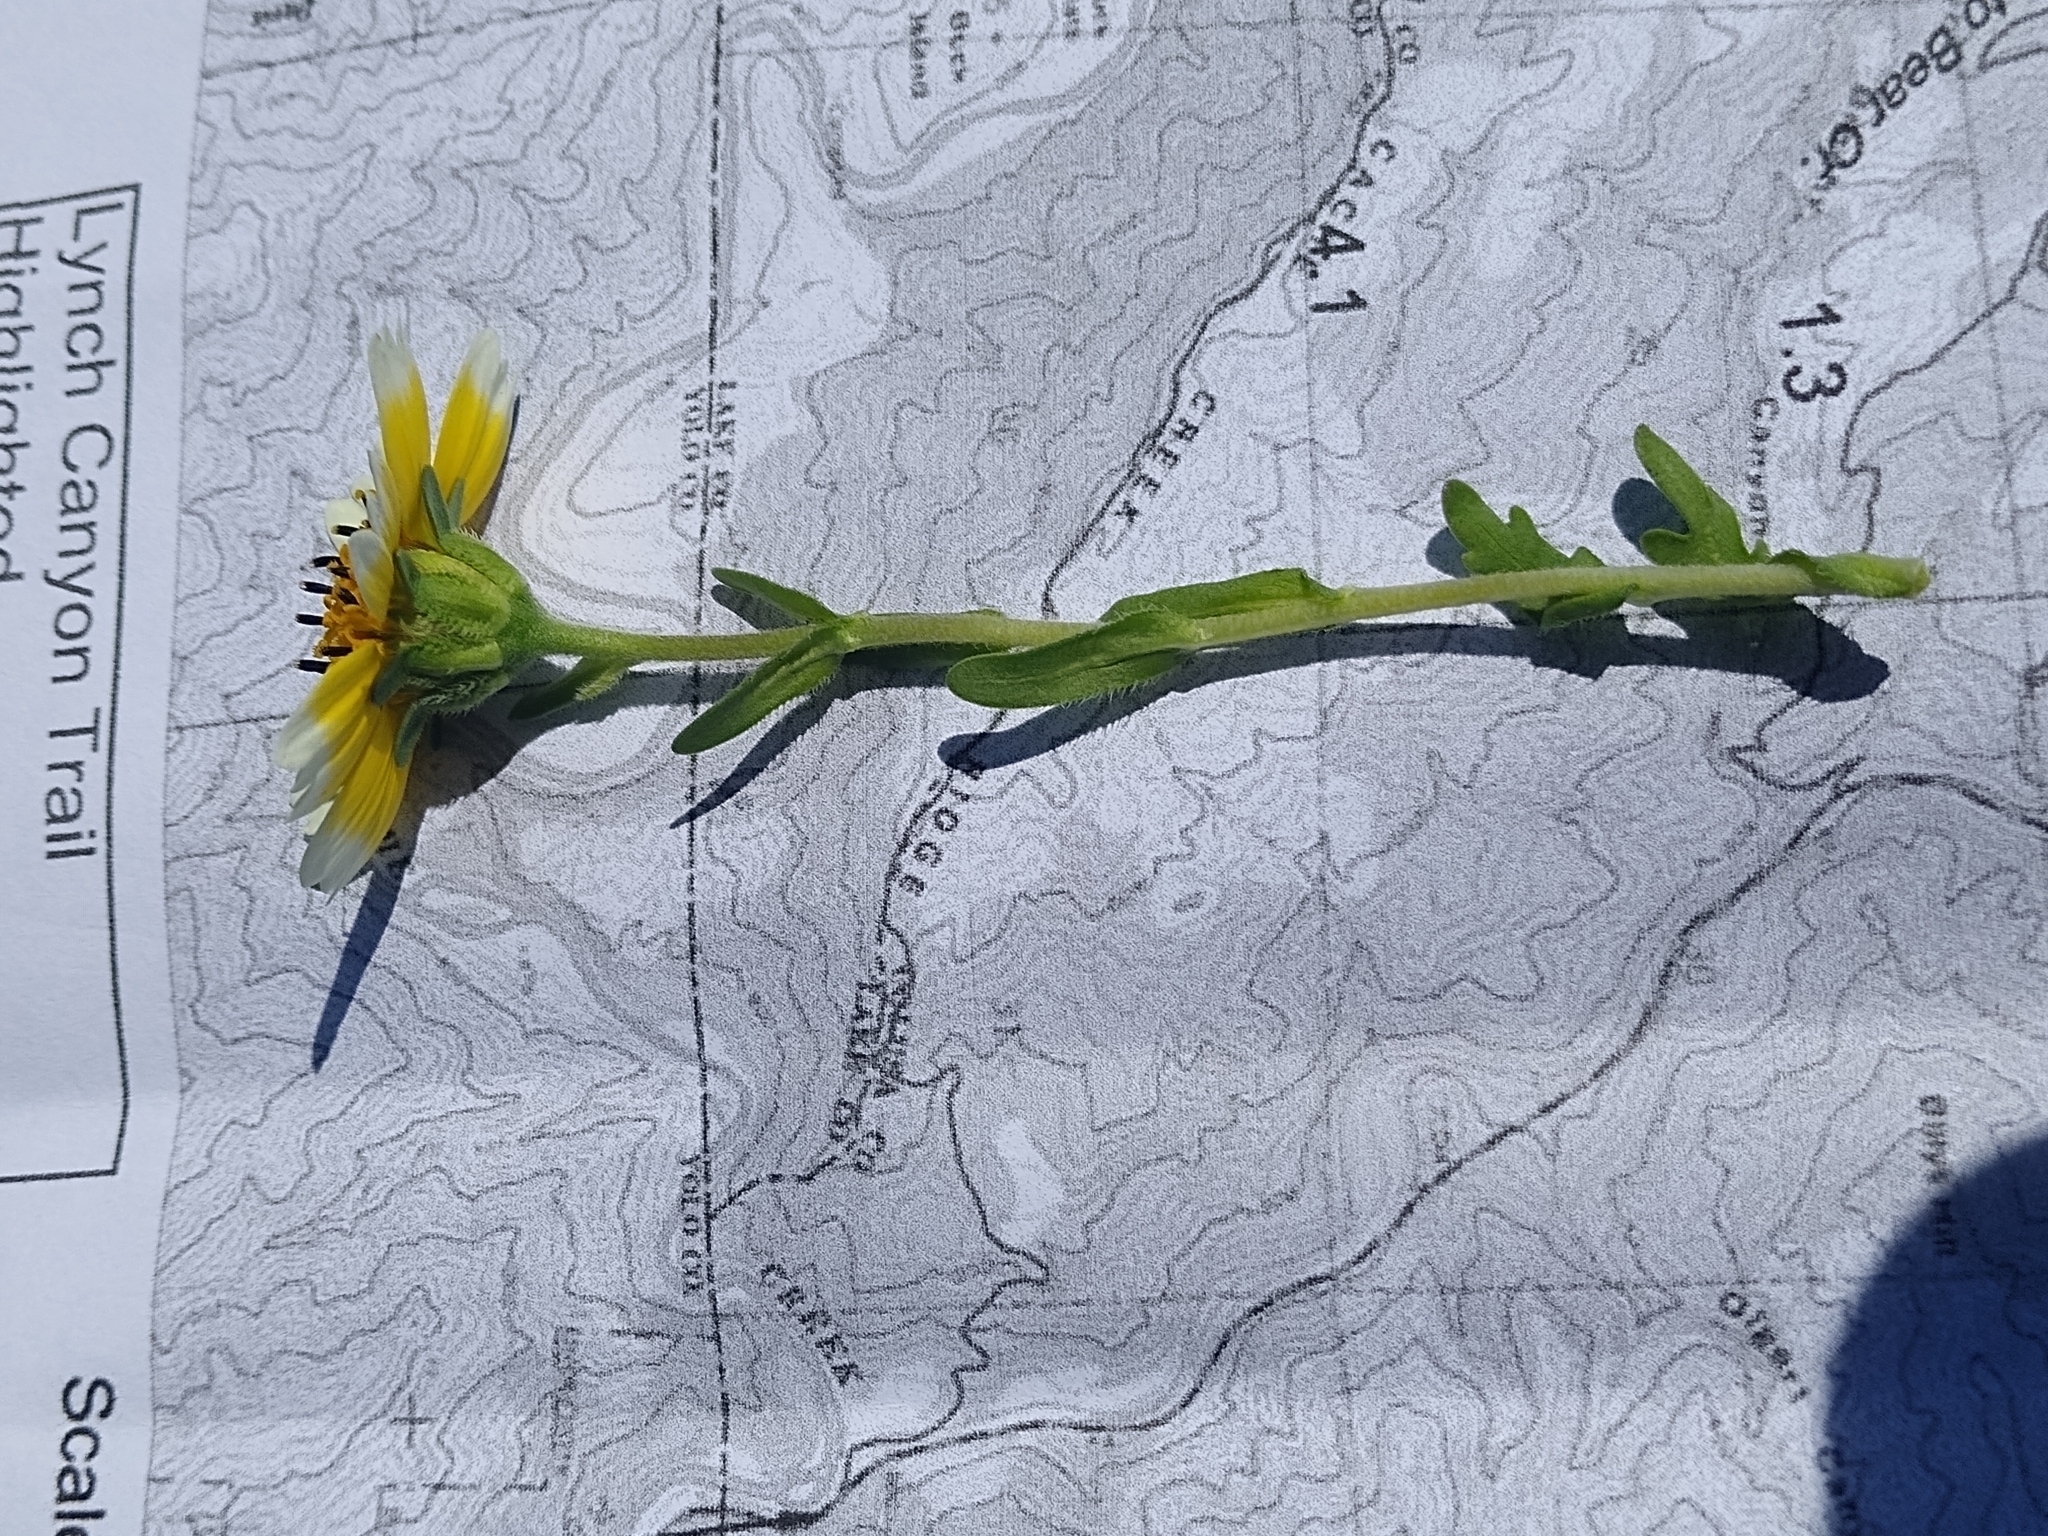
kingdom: Plantae
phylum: Tracheophyta
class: Magnoliopsida
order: Asterales
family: Asteraceae
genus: Layia
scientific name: Layia chrysanthemoides
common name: Smooth layia
